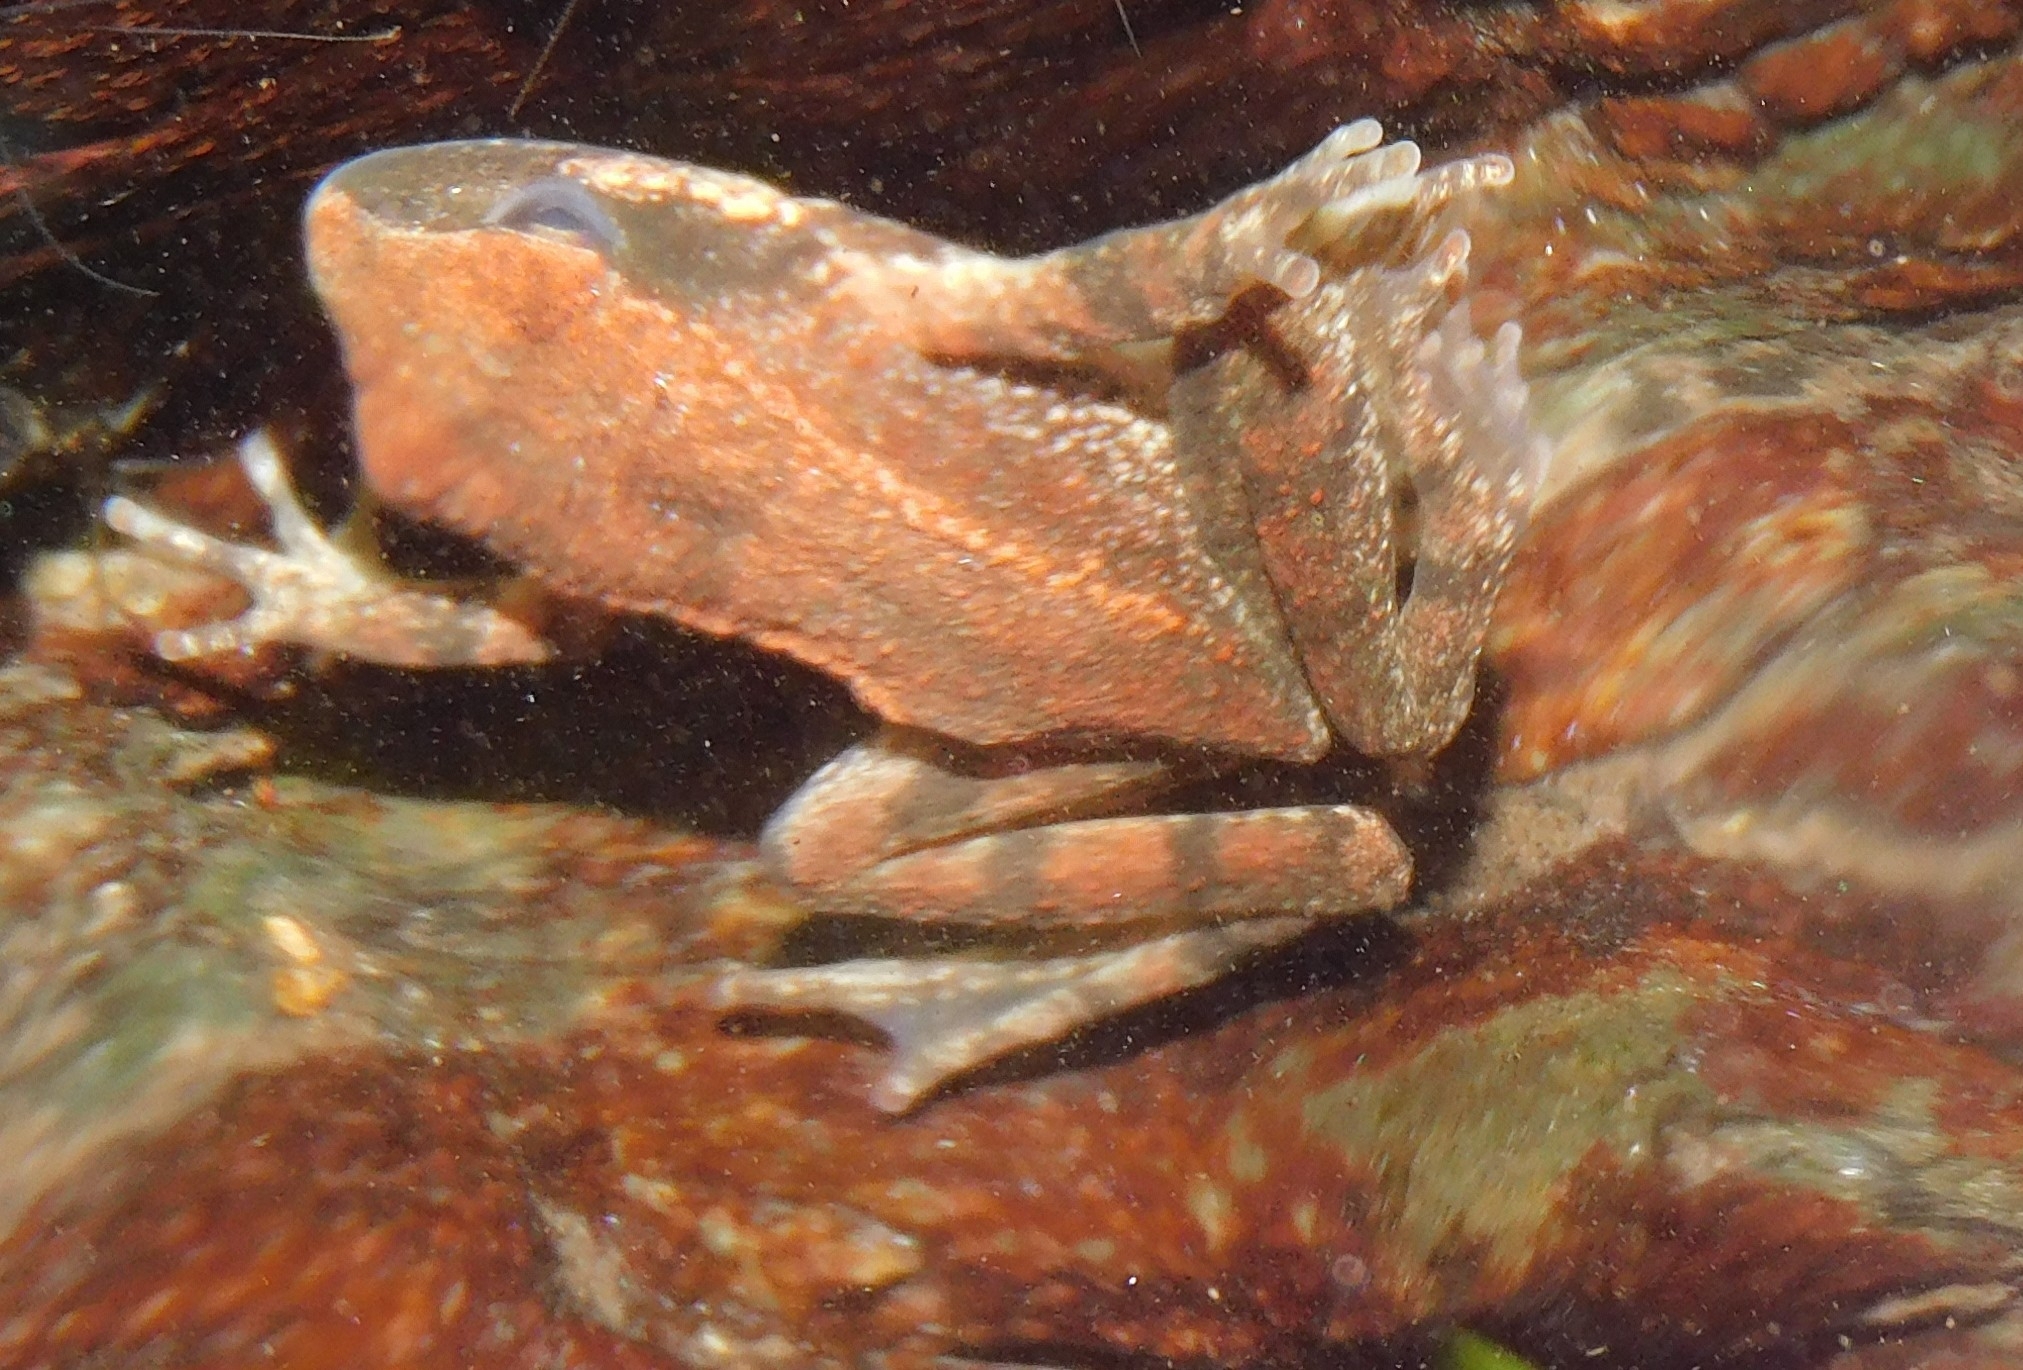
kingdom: Animalia
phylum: Chordata
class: Amphibia
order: Anura
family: Ranidae
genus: Rana
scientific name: Rana italica
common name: Italian stream frog
